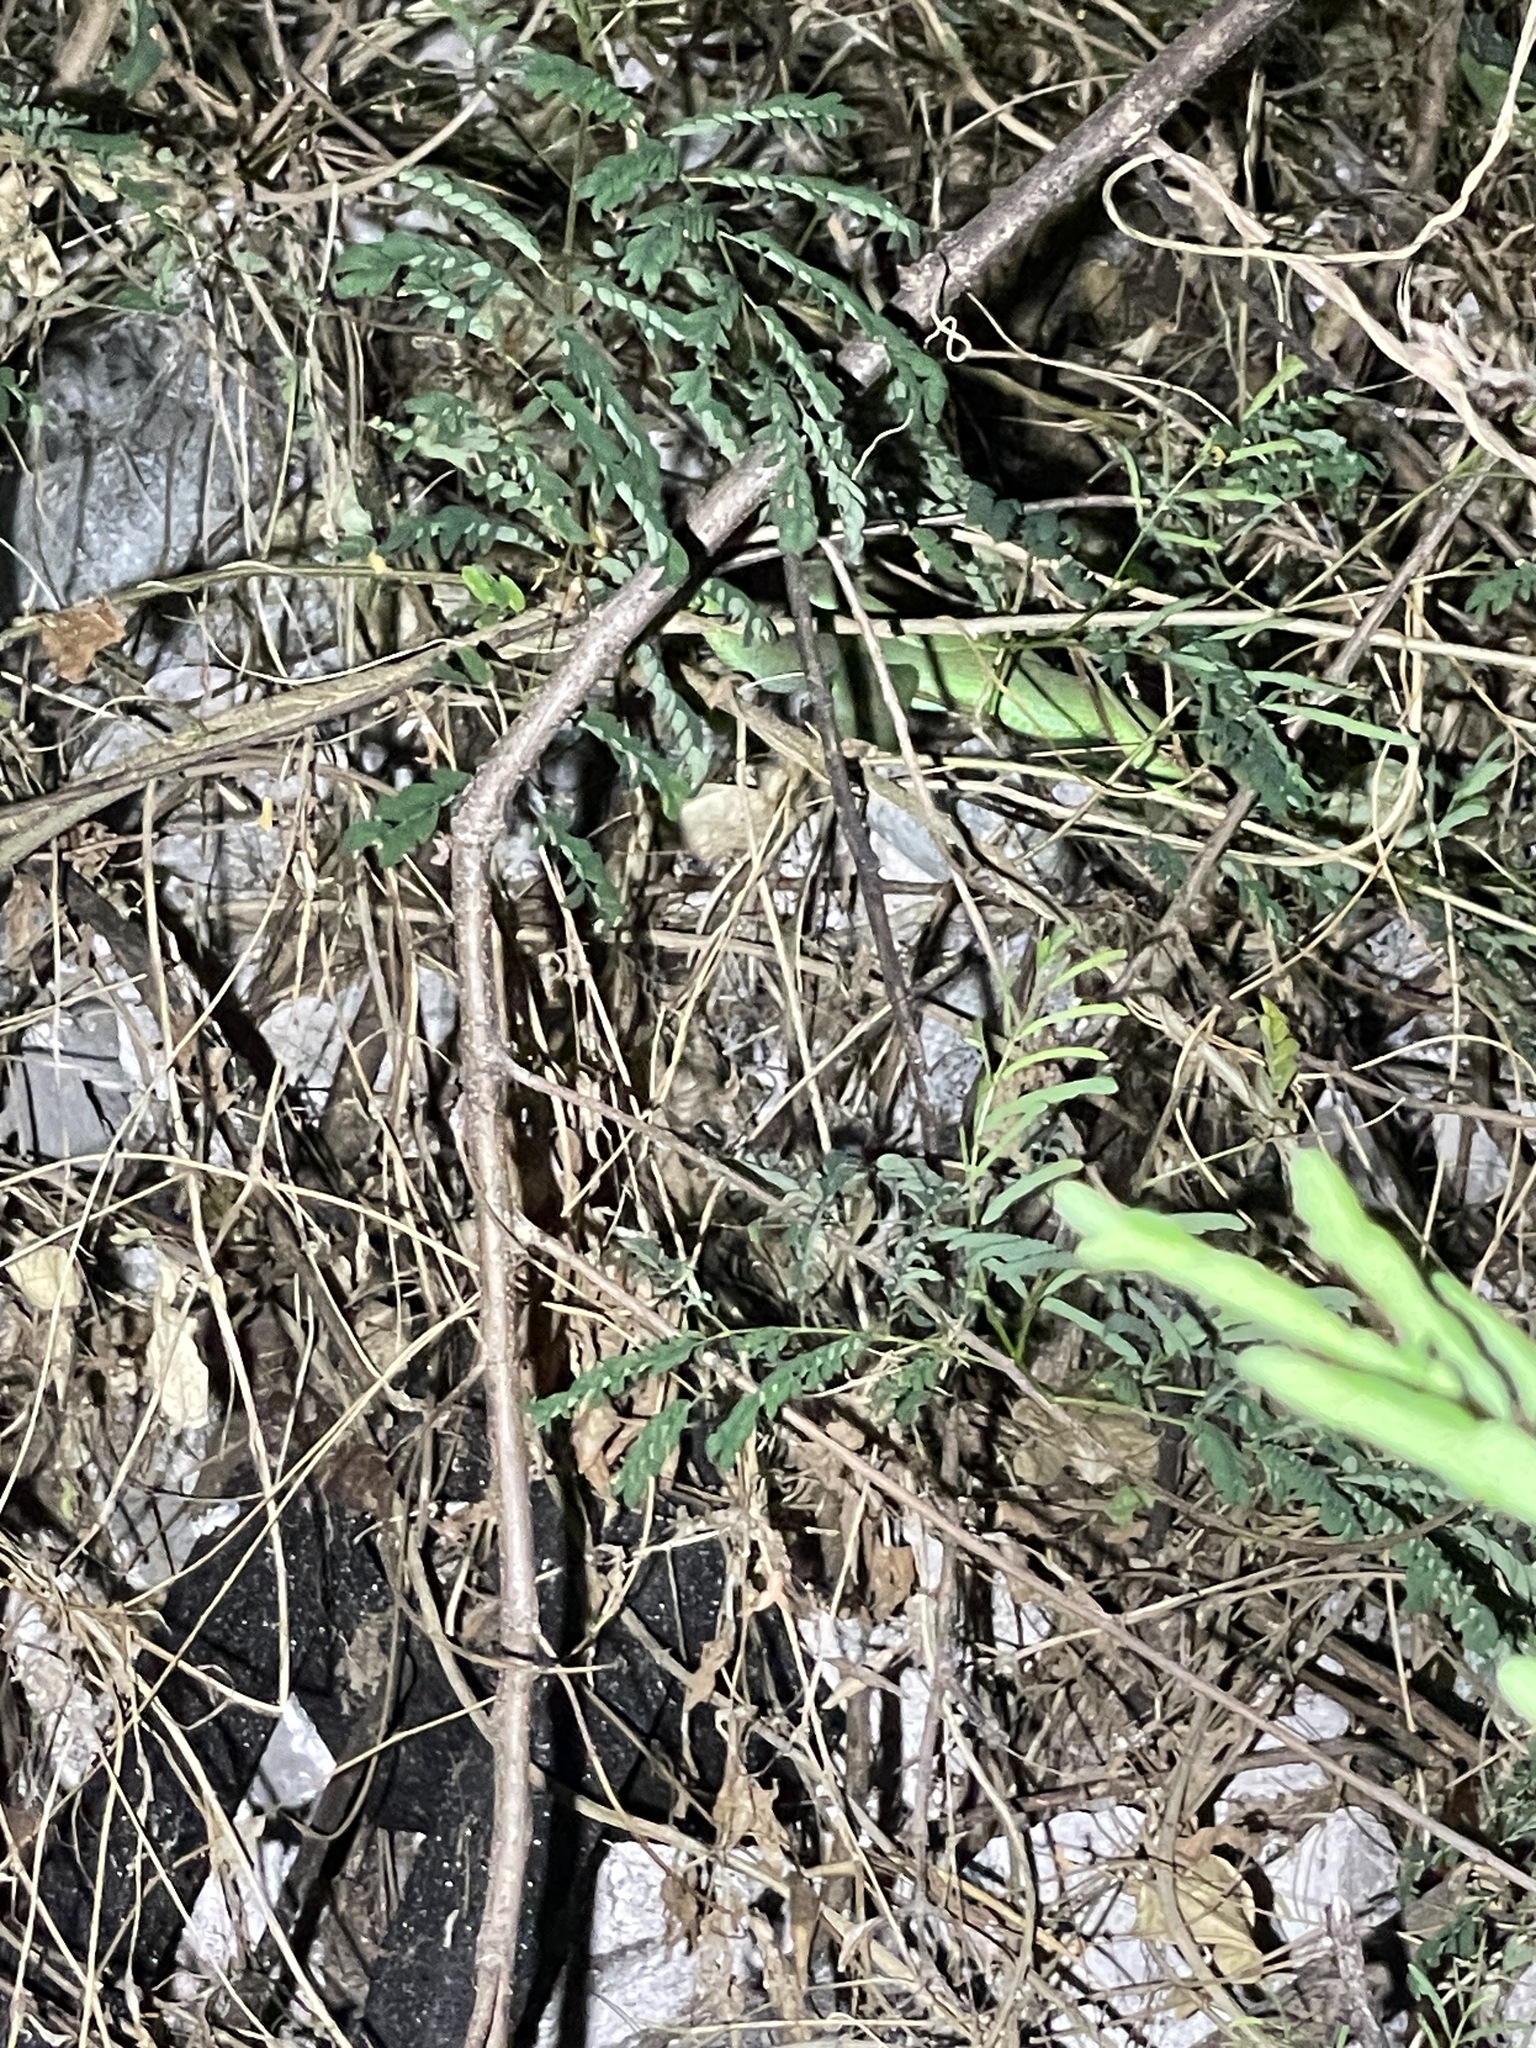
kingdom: Animalia
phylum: Chordata
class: Squamata
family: Viperidae
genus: Trimeresurus
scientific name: Trimeresurus macrops
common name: Kramer's pit viper
